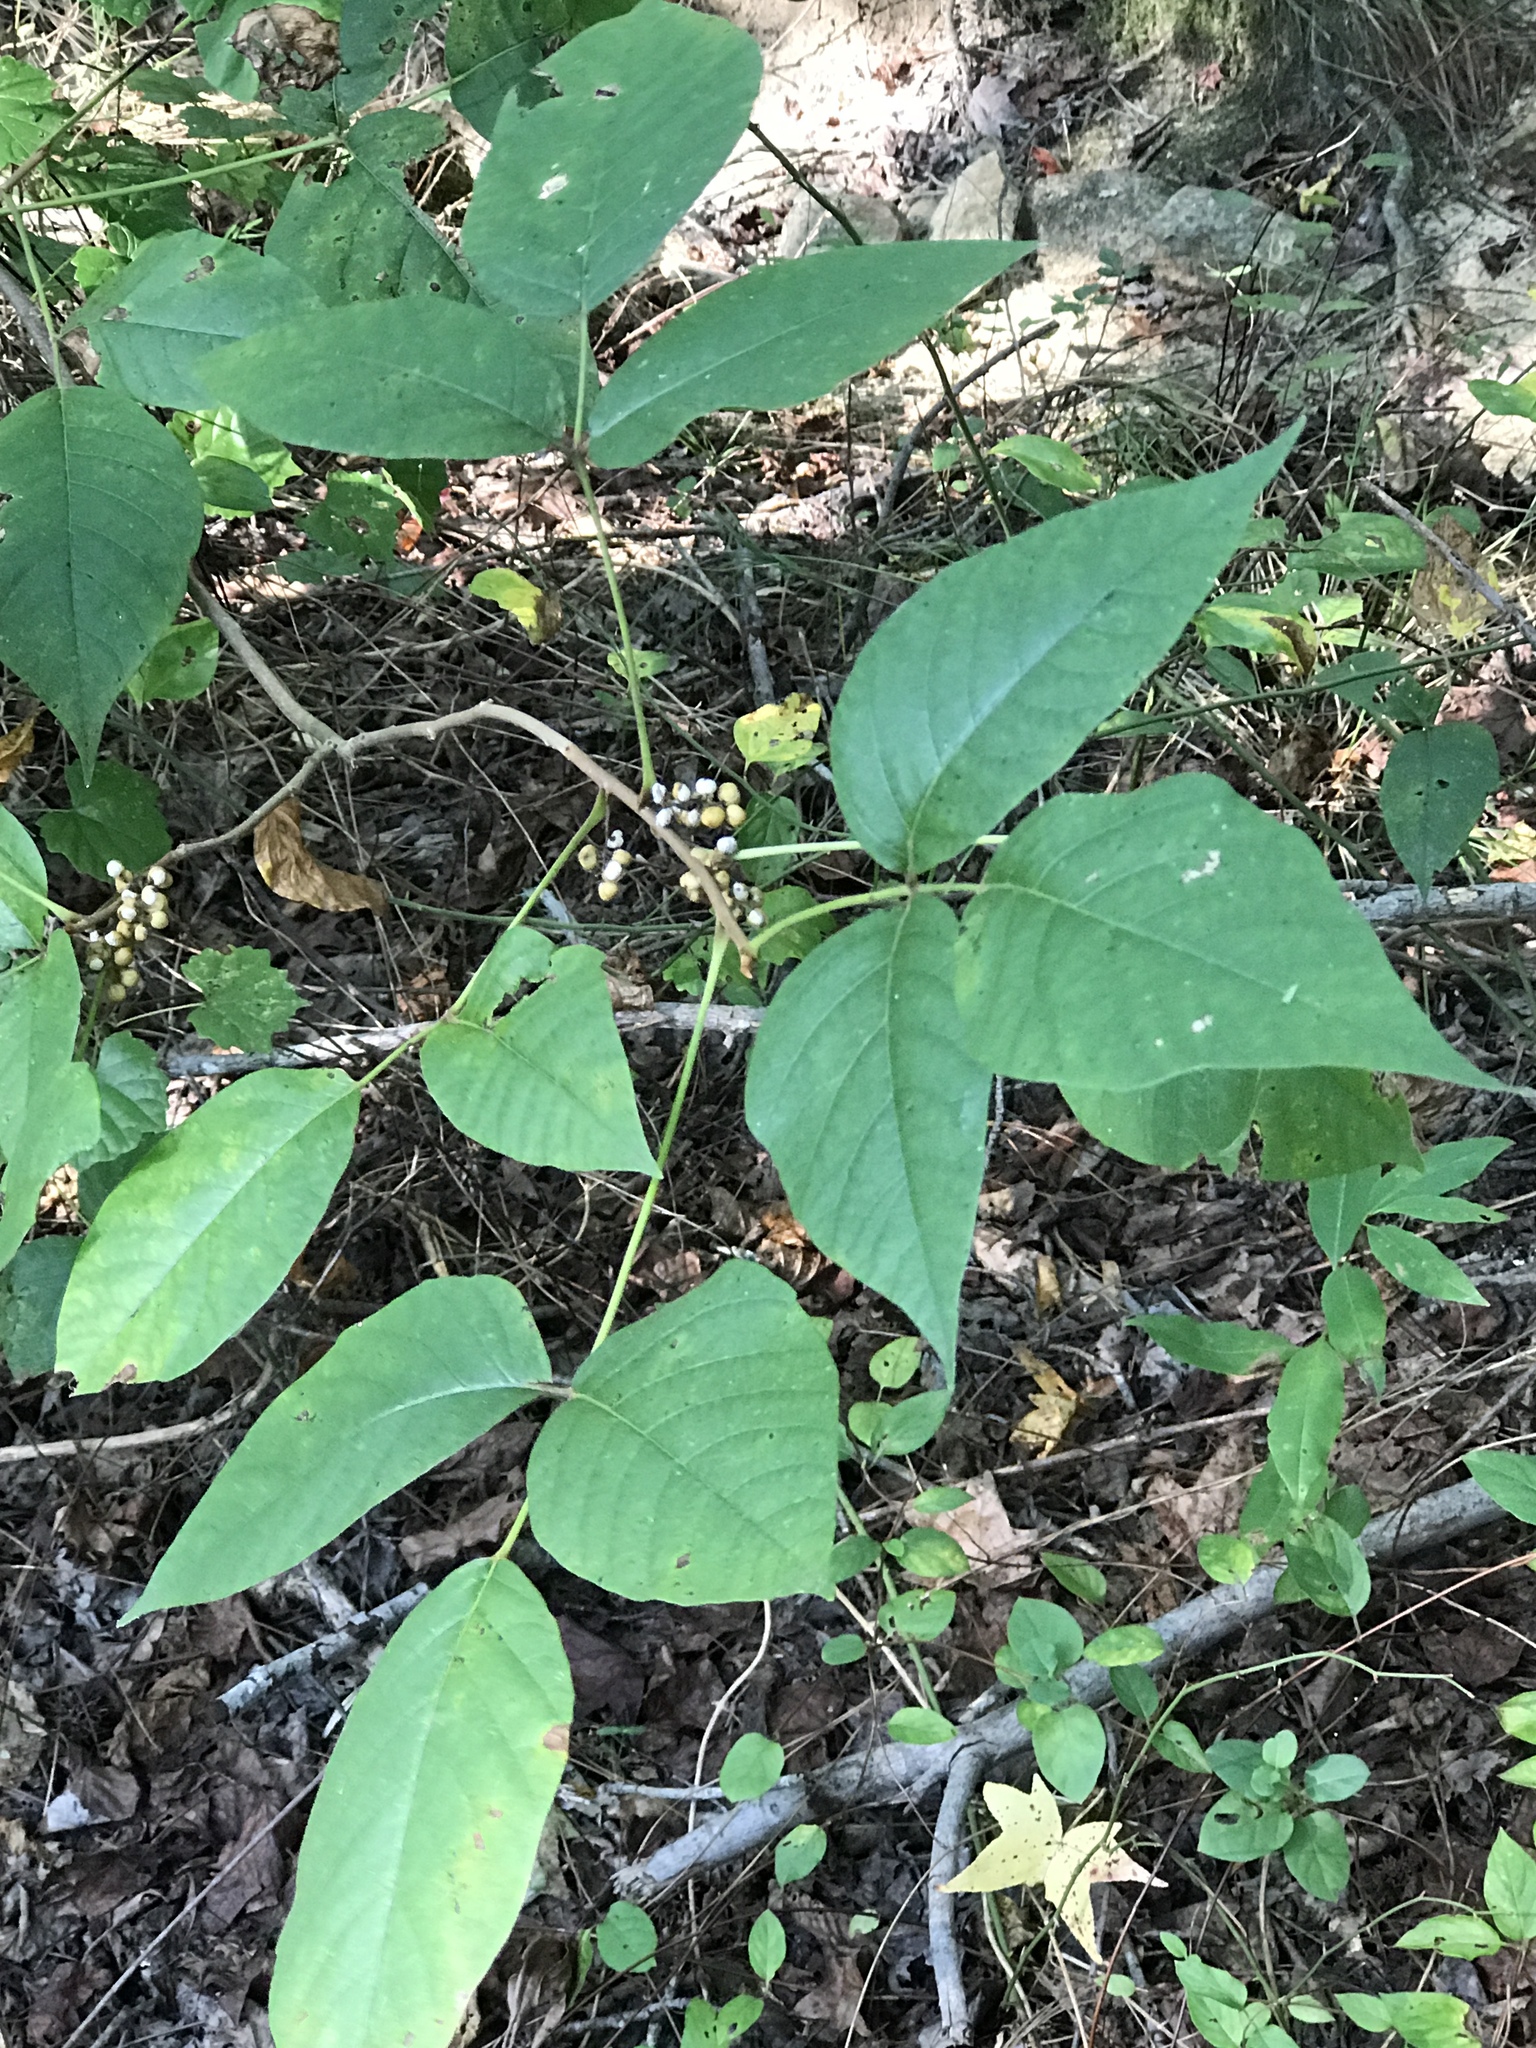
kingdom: Plantae
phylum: Tracheophyta
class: Magnoliopsida
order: Sapindales
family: Anacardiaceae
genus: Toxicodendron
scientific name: Toxicodendron radicans
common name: Poison ivy
